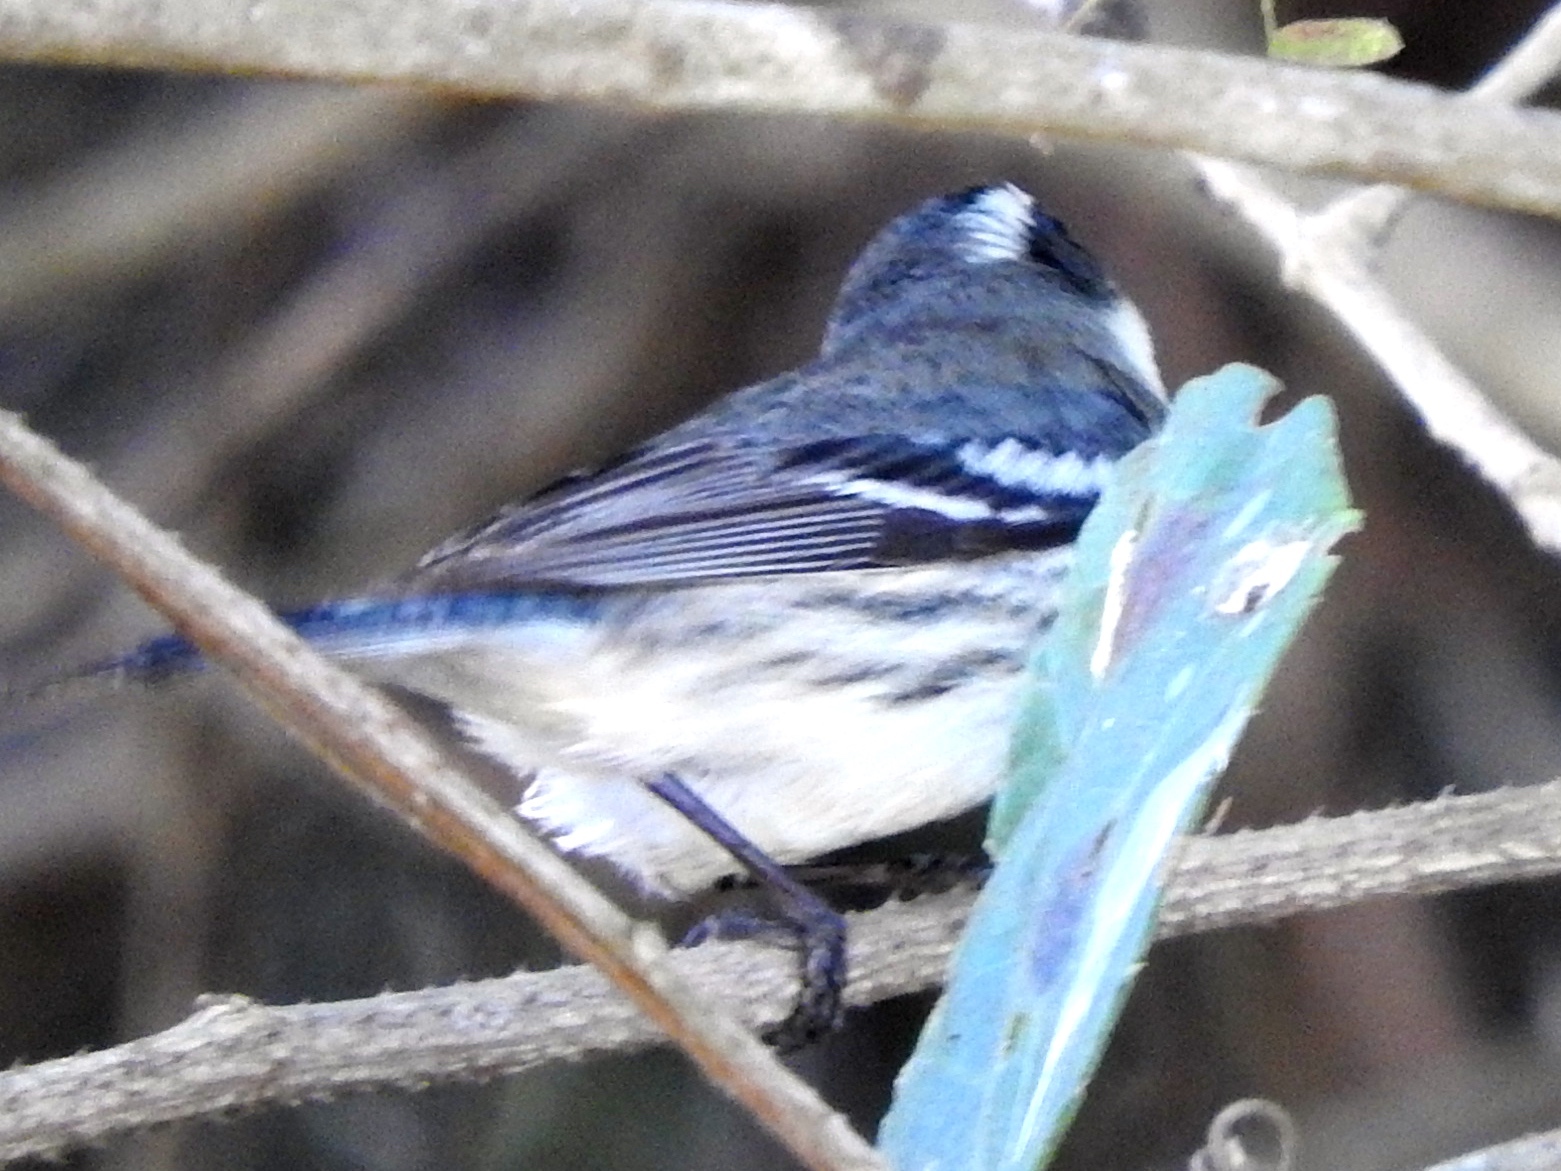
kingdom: Animalia
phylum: Chordata
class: Aves
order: Passeriformes
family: Parulidae
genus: Setophaga
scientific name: Setophaga nigrescens
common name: Black-throated gray warbler
